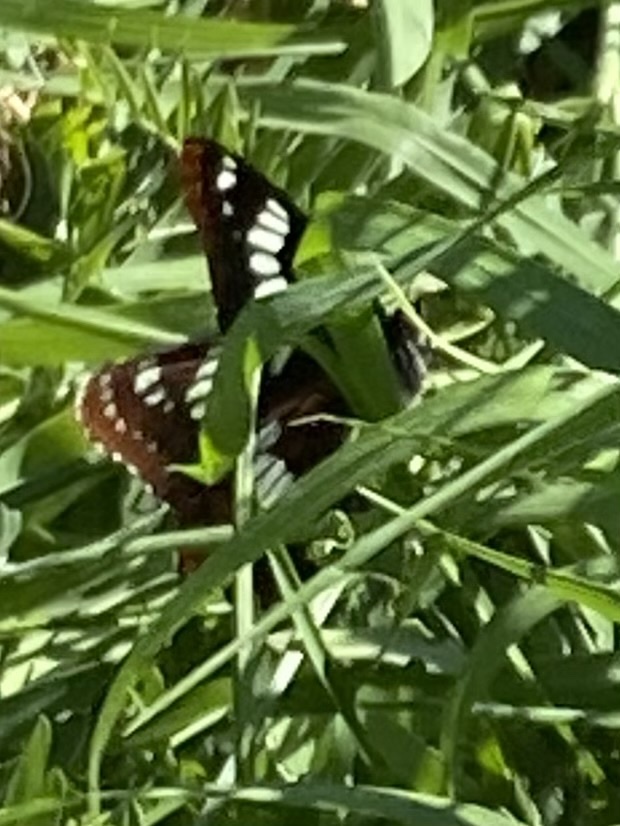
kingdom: Animalia
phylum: Arthropoda
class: Insecta
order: Lepidoptera
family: Nymphalidae
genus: Limenitis
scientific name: Limenitis lorquini
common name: Lorquin's admiral
